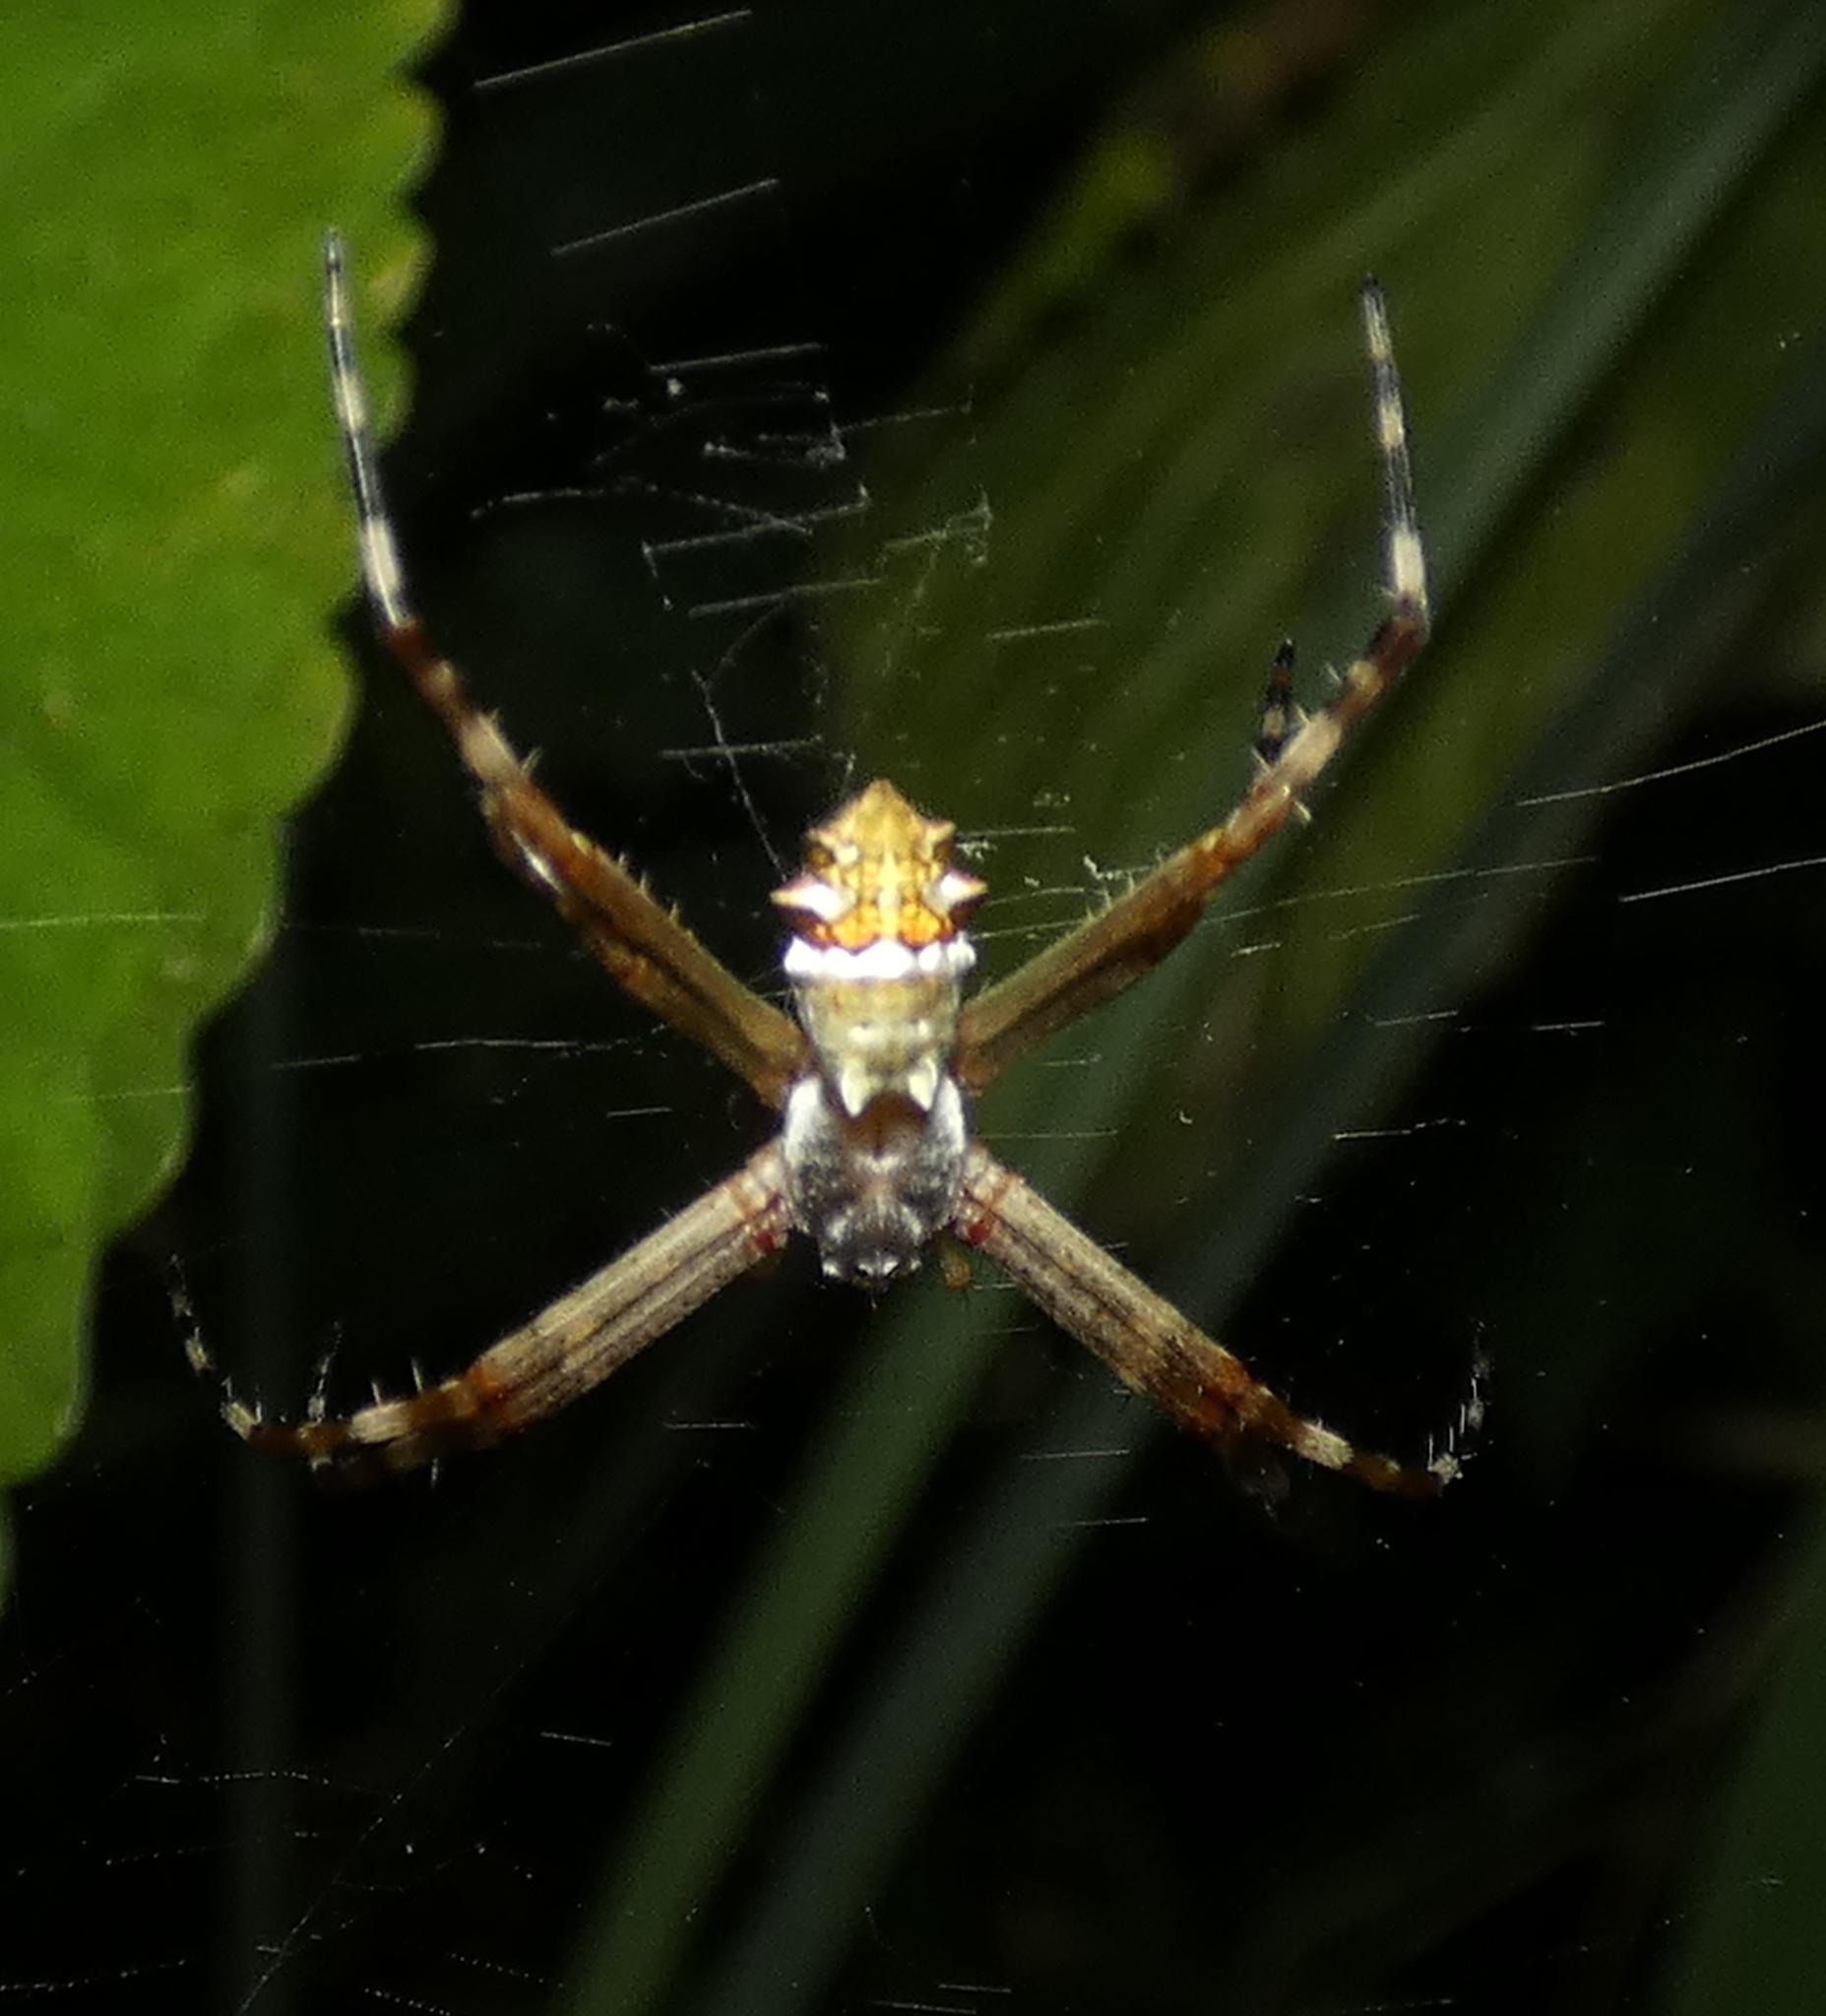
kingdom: Animalia
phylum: Arthropoda
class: Arachnida
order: Araneae
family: Araneidae
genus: Argiope
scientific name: Argiope argentata
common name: Orb weavers
